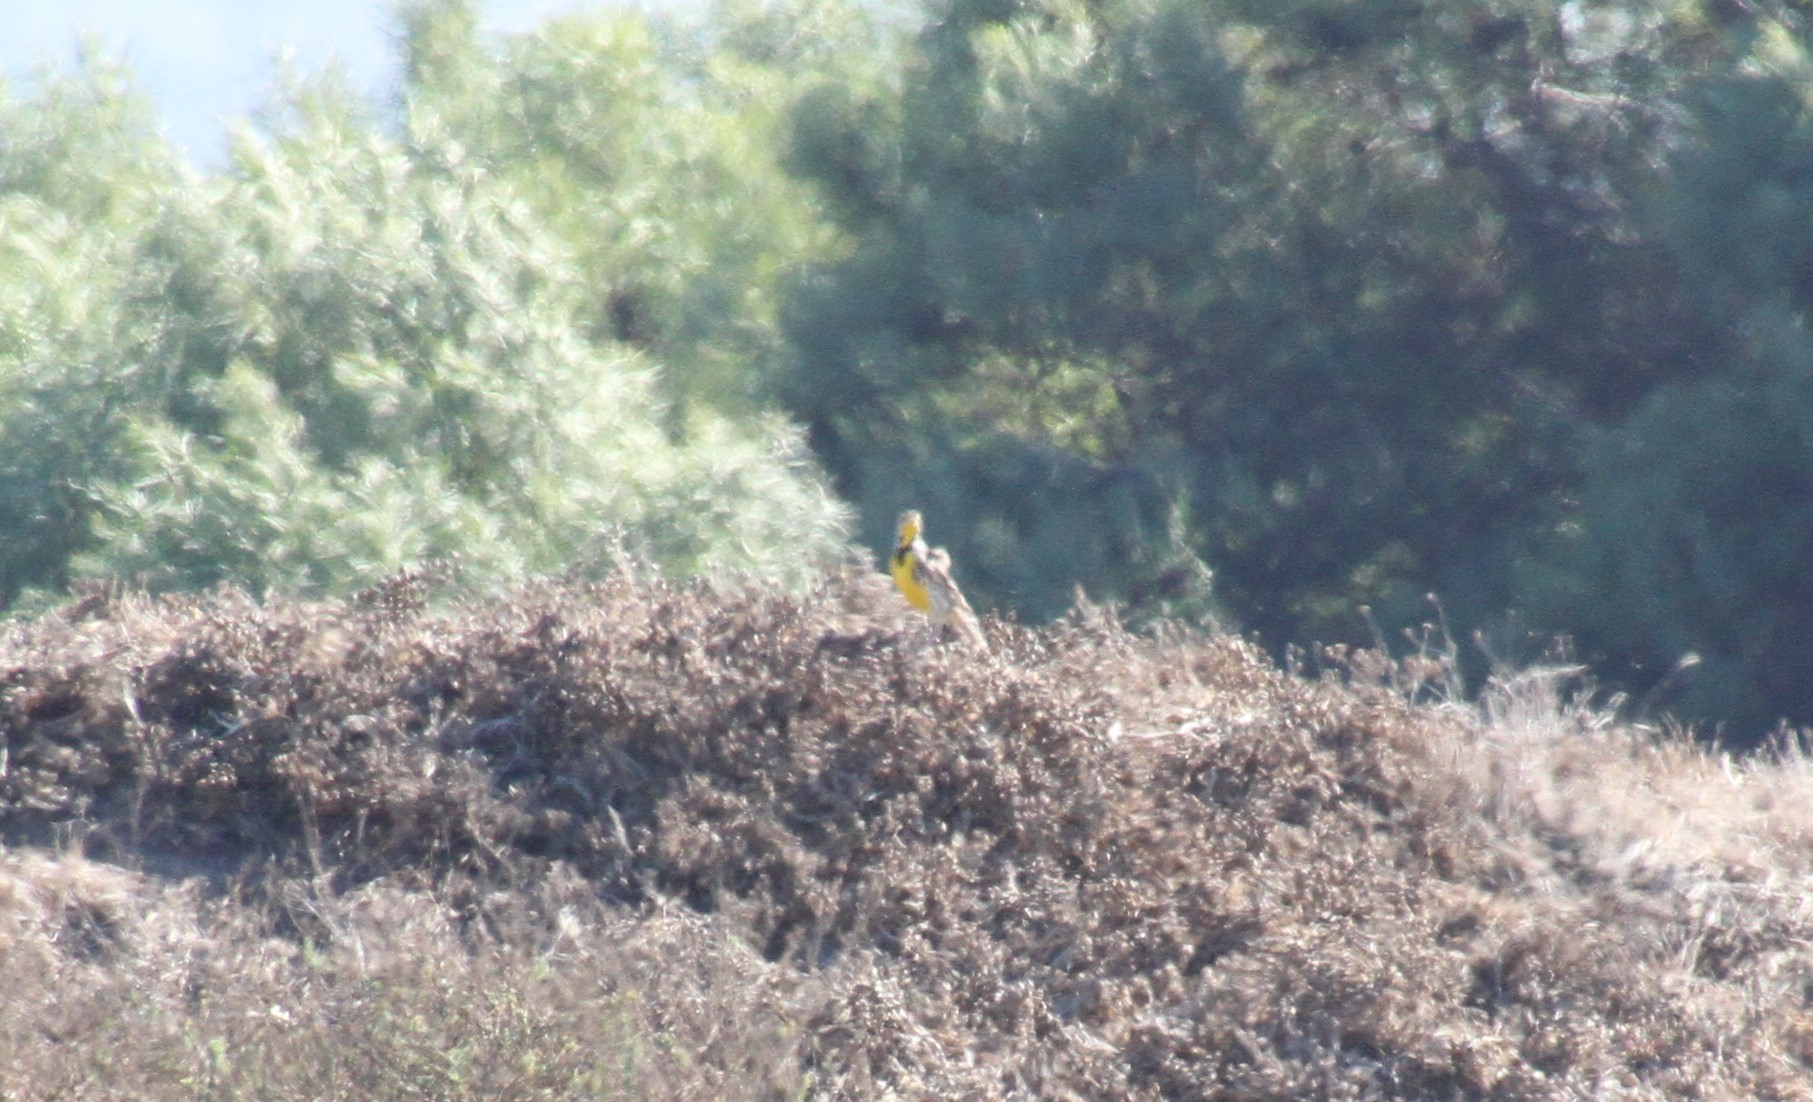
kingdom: Animalia
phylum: Chordata
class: Aves
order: Passeriformes
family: Icteridae
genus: Sturnella
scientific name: Sturnella neglecta
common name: Western meadowlark
